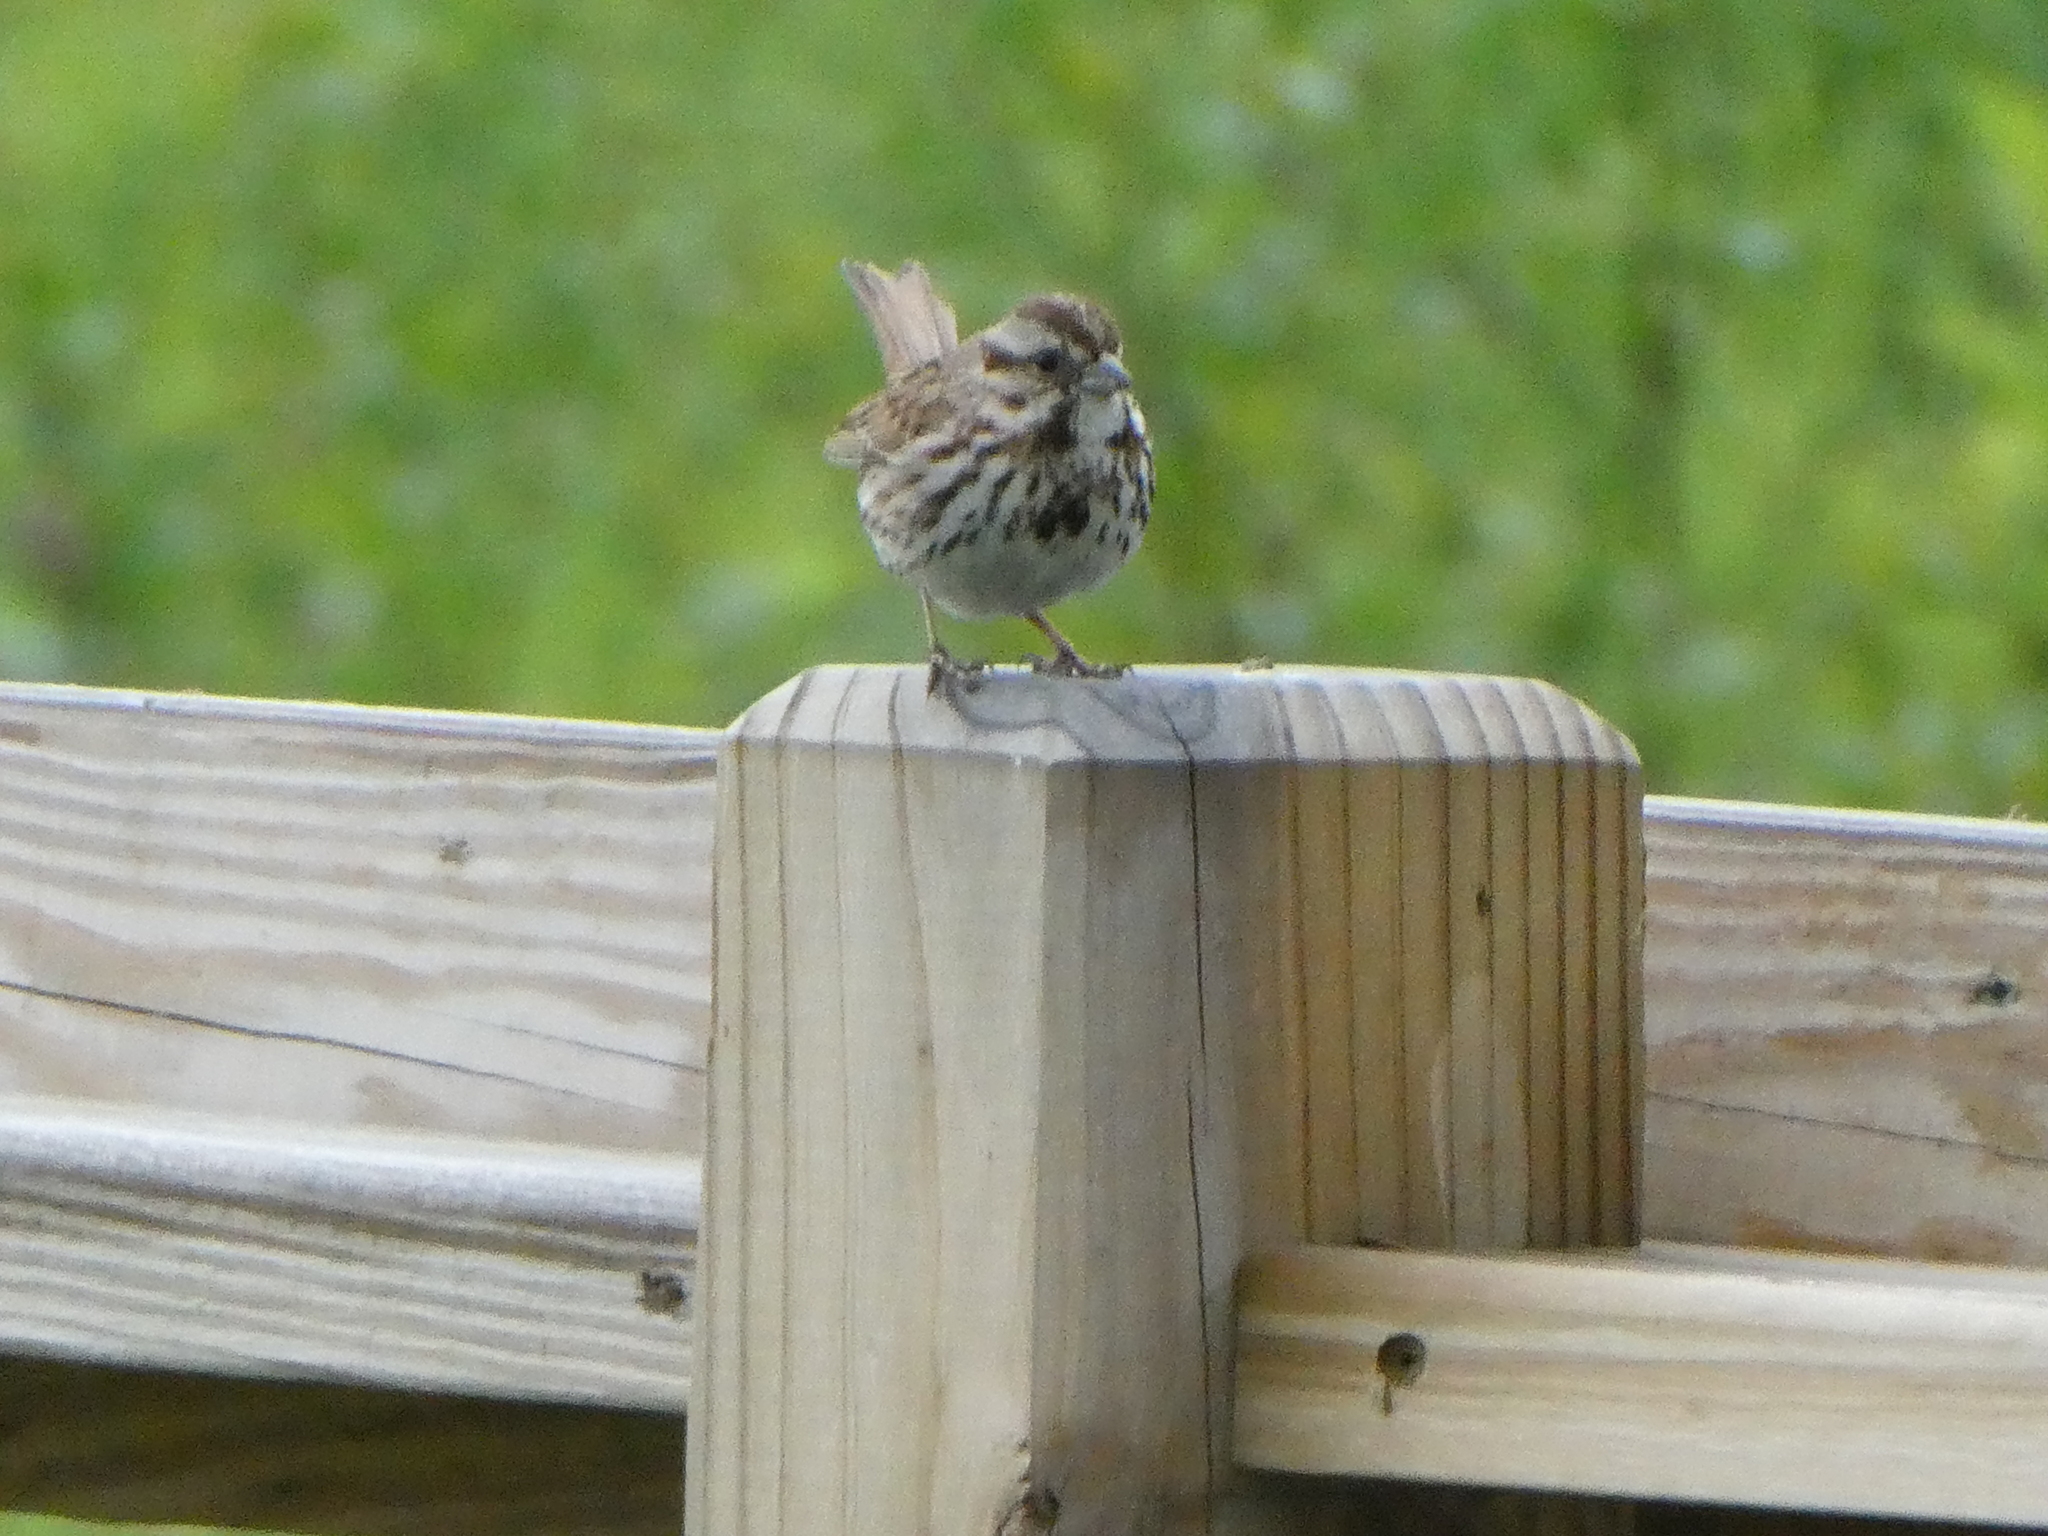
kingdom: Animalia
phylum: Chordata
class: Aves
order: Passeriformes
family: Passerellidae
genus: Melospiza
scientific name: Melospiza melodia
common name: Song sparrow
